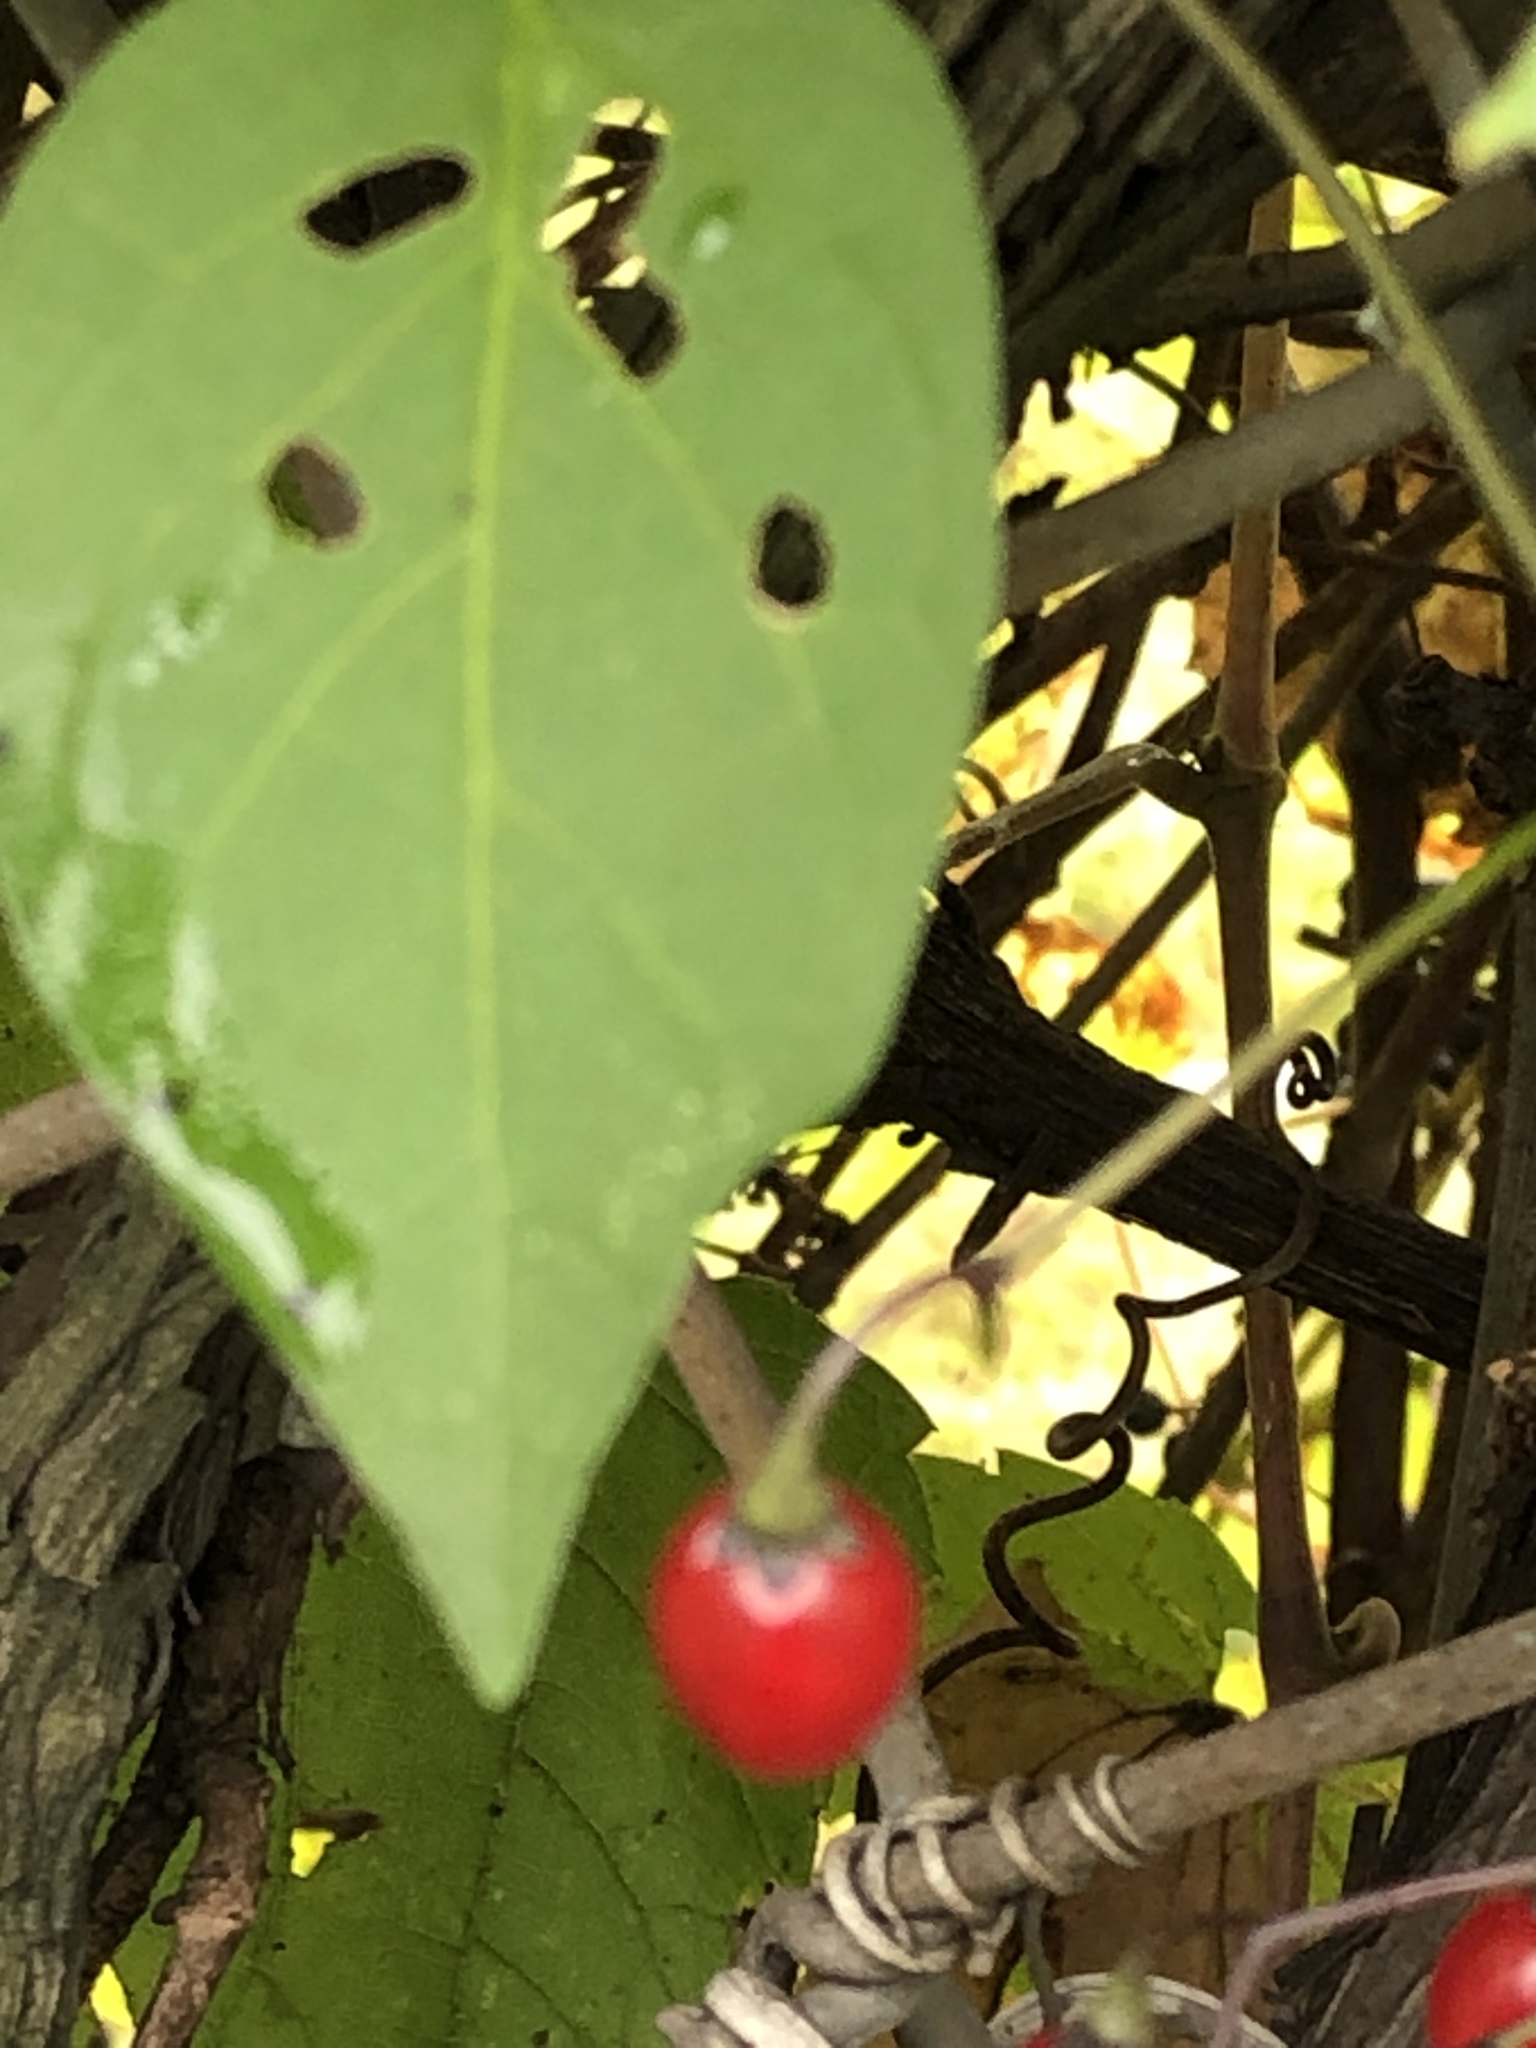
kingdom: Plantae
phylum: Tracheophyta
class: Magnoliopsida
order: Solanales
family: Solanaceae
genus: Solanum
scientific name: Solanum dulcamara
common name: Climbing nightshade
